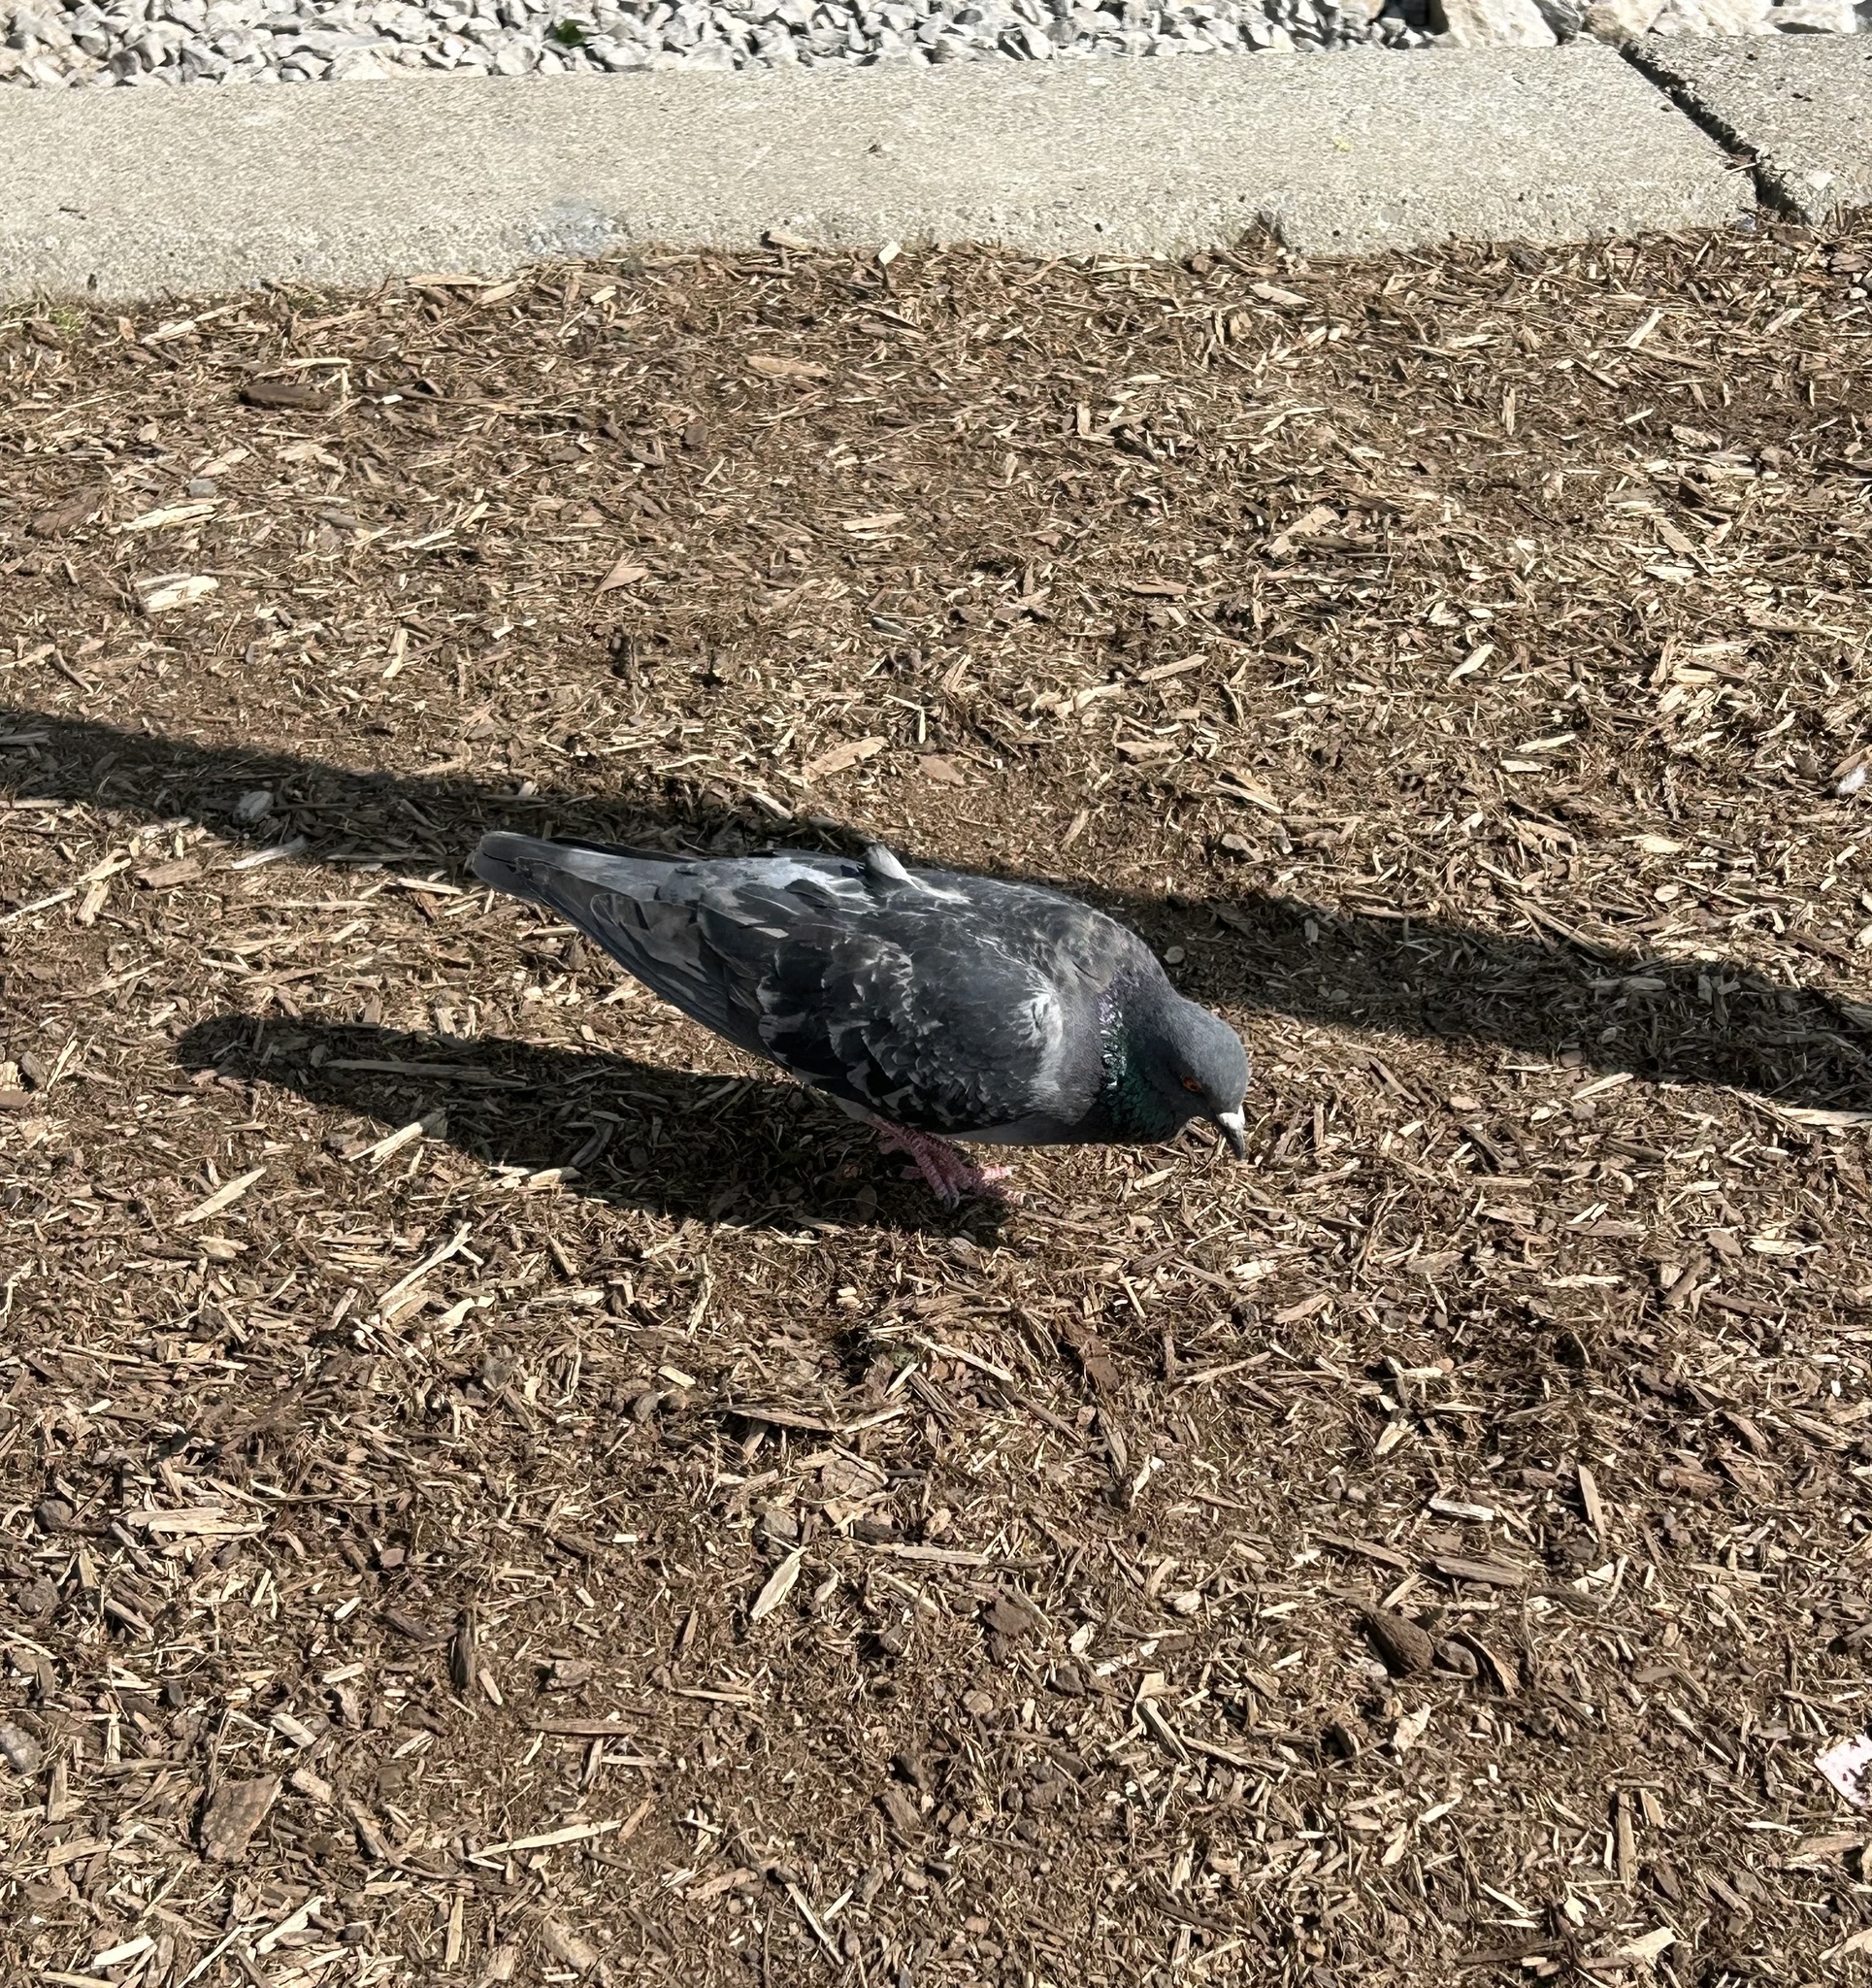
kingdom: Animalia
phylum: Chordata
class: Aves
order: Columbiformes
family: Columbidae
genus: Columba
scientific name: Columba livia
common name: Rock pigeon
